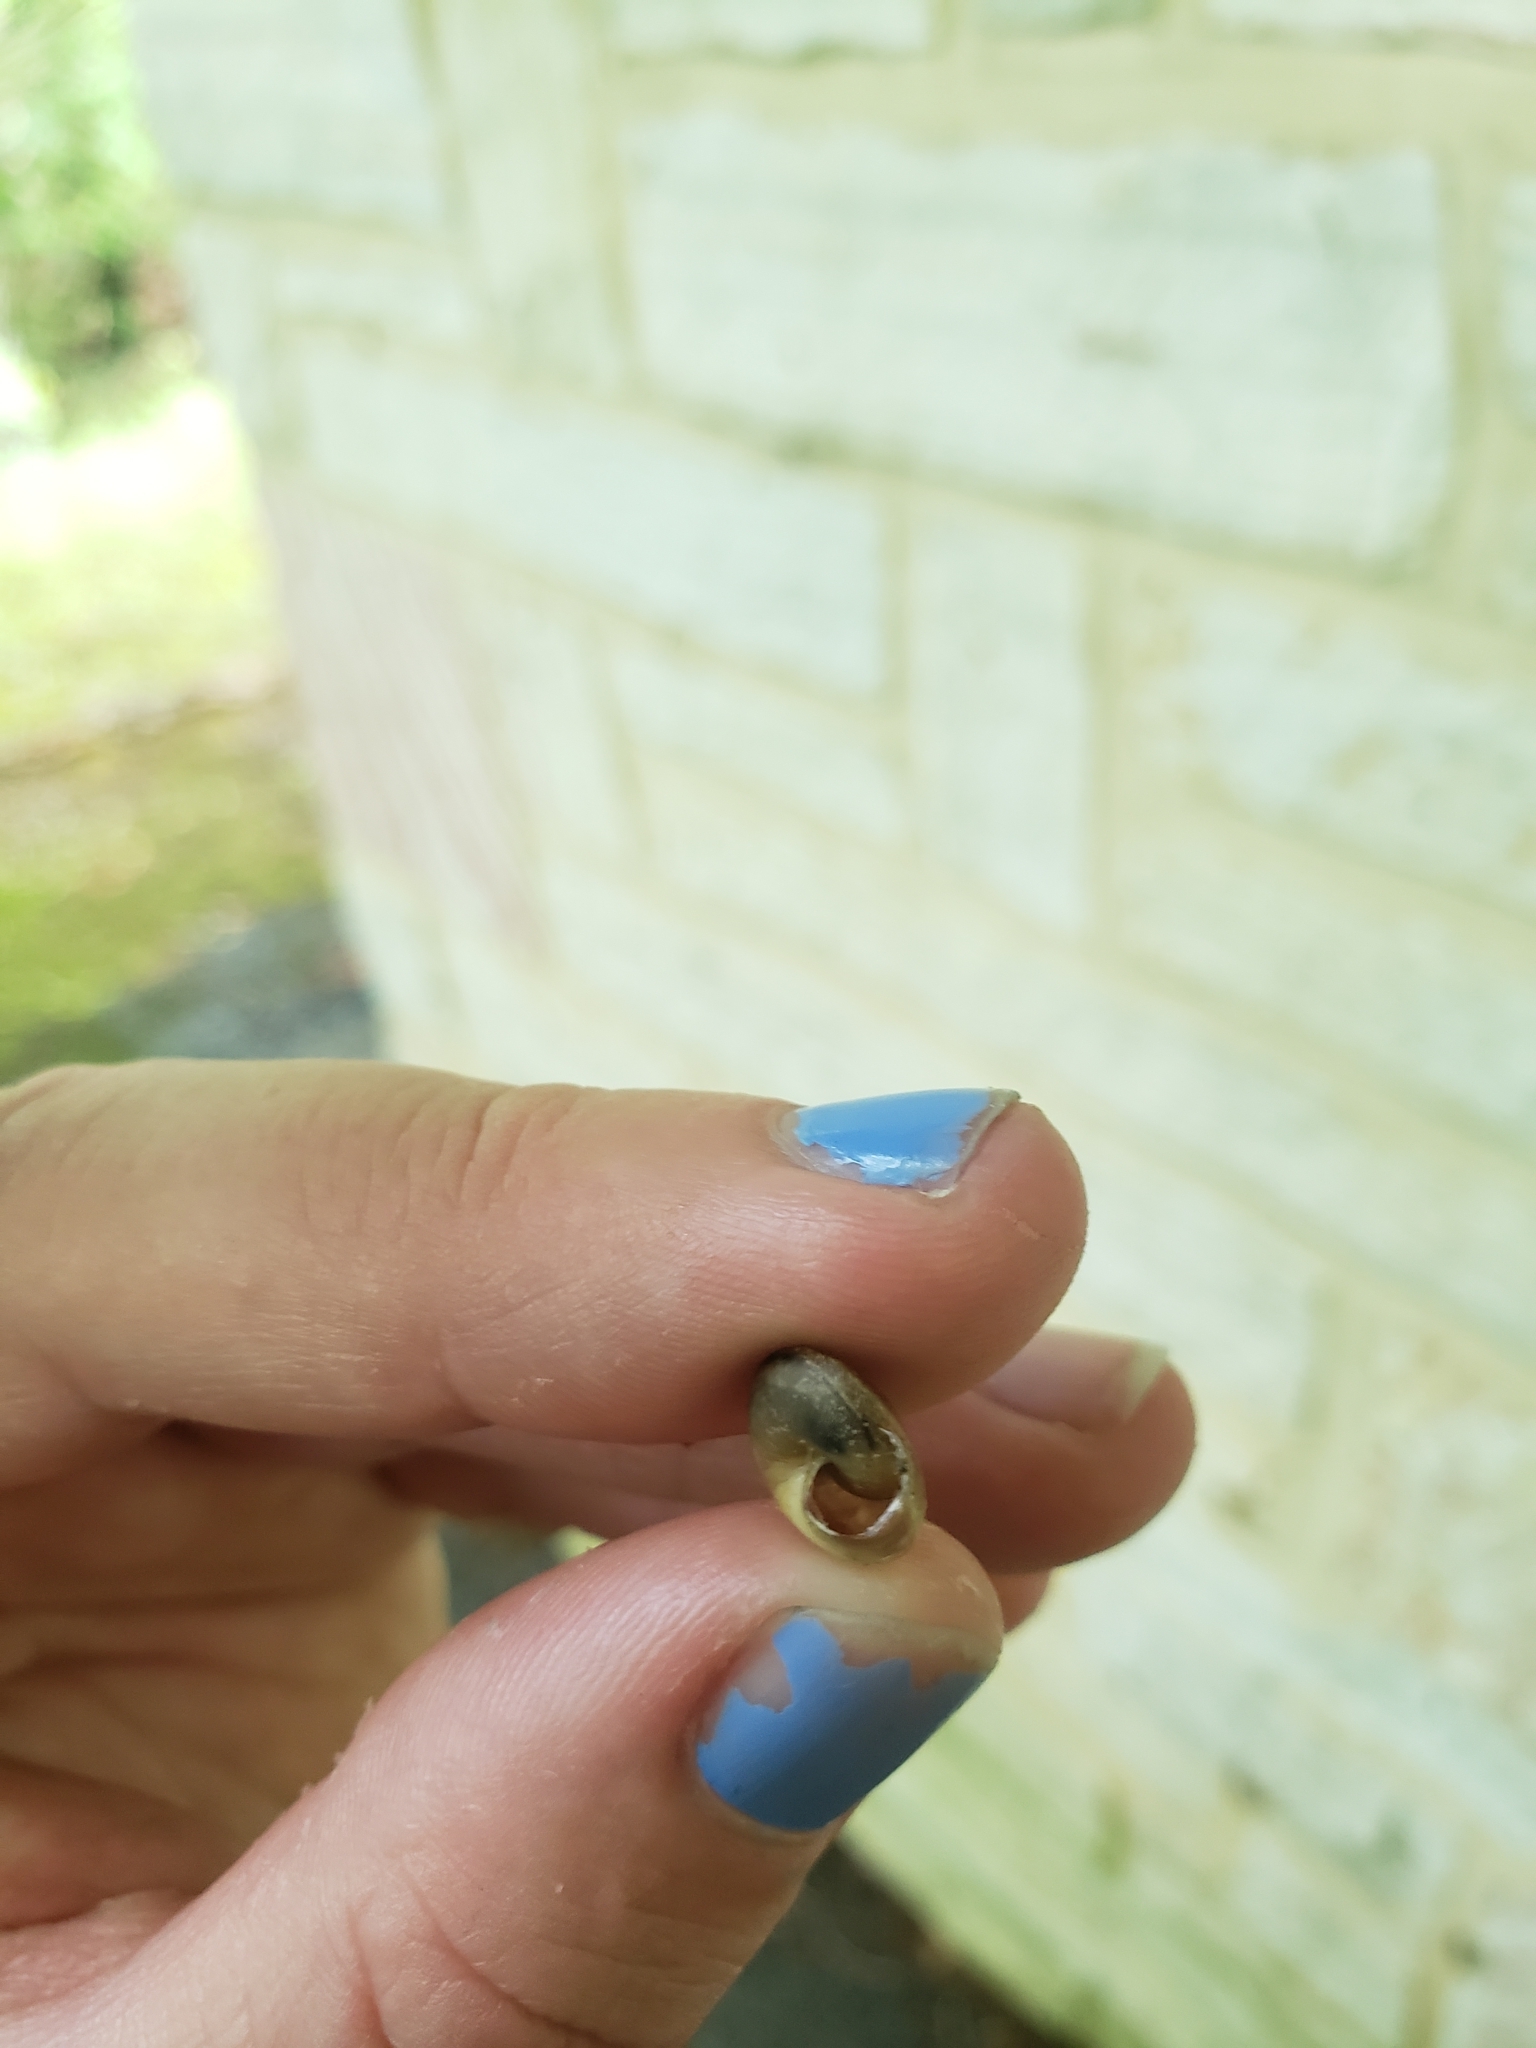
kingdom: Animalia
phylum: Mollusca
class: Gastropoda
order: Stylommatophora
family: Gastrodontidae
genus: Ventridens
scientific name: Ventridens intertextus
